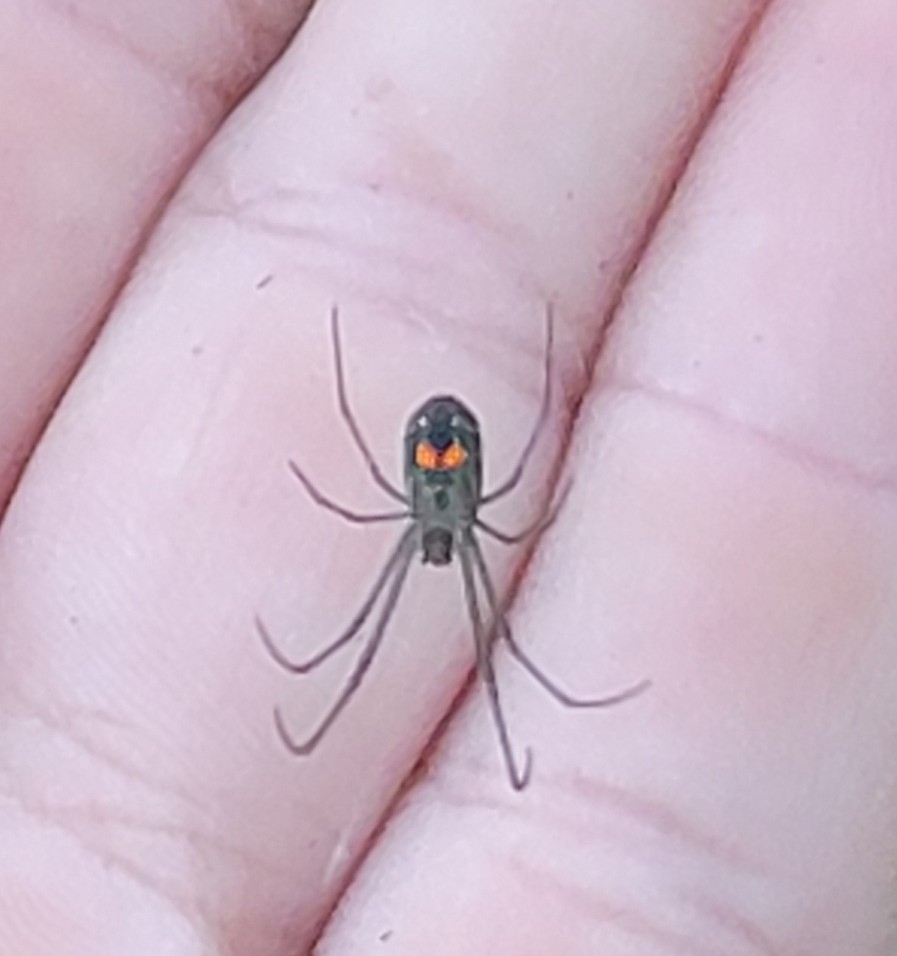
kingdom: Animalia
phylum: Arthropoda
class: Arachnida
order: Araneae
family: Tetragnathidae
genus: Leucauge
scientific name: Leucauge argyrobapta
